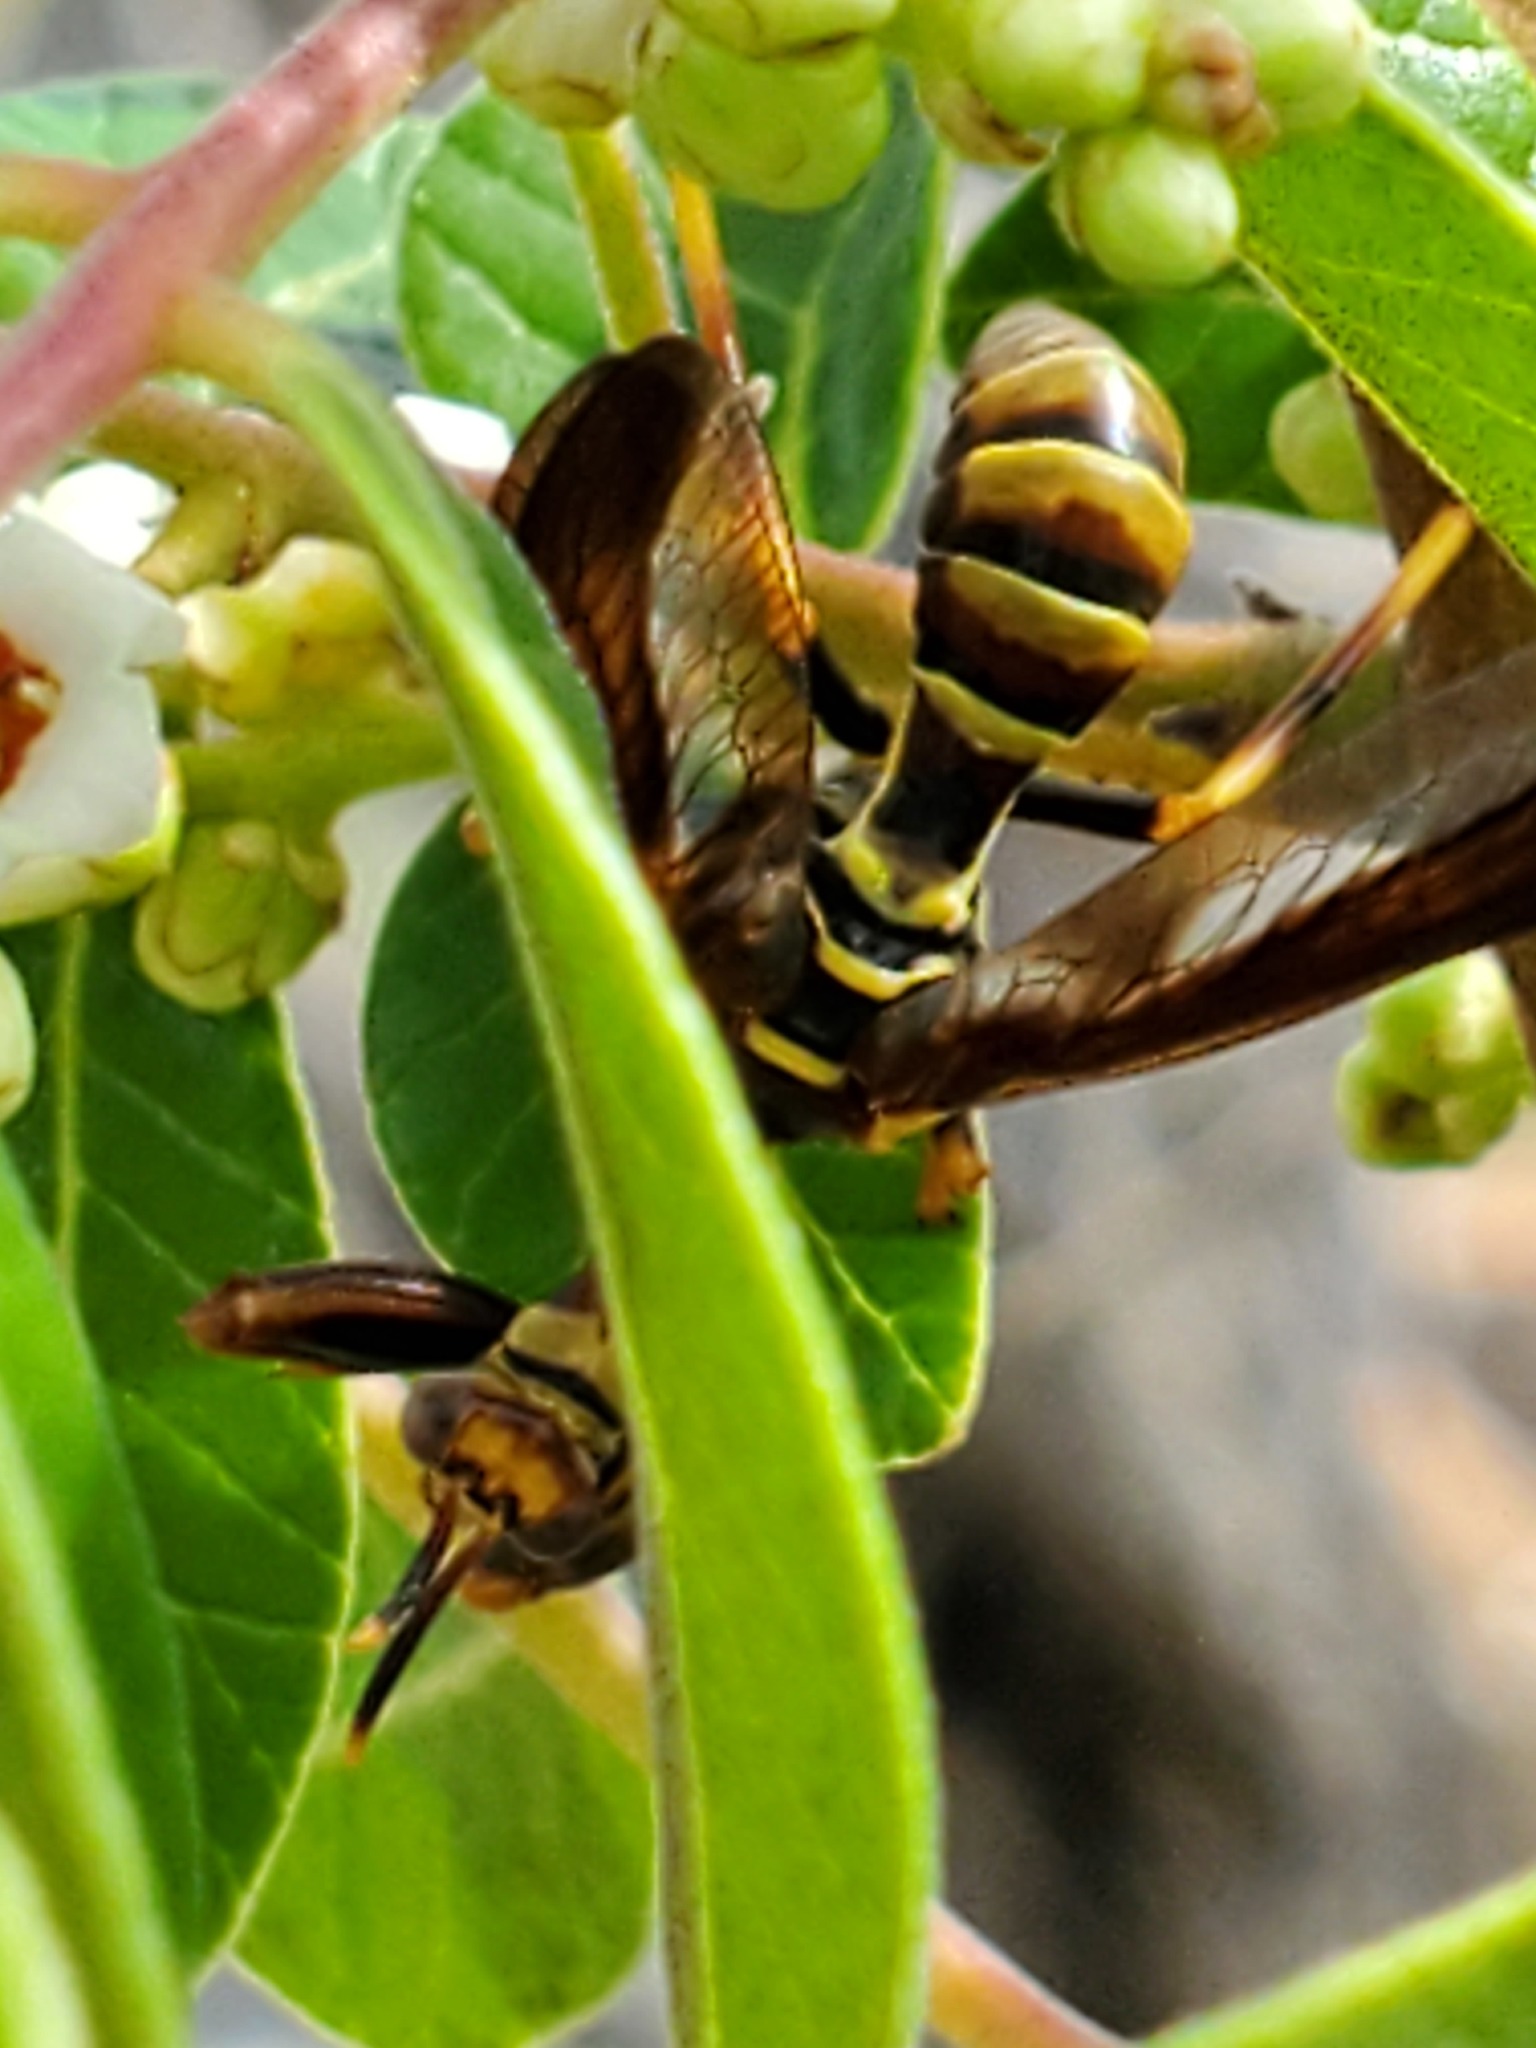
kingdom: Animalia
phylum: Arthropoda
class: Insecta
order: Neuroptera
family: Mantispidae
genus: Climaciella
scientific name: Climaciella brunnea
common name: Brown wasp mantidfly
